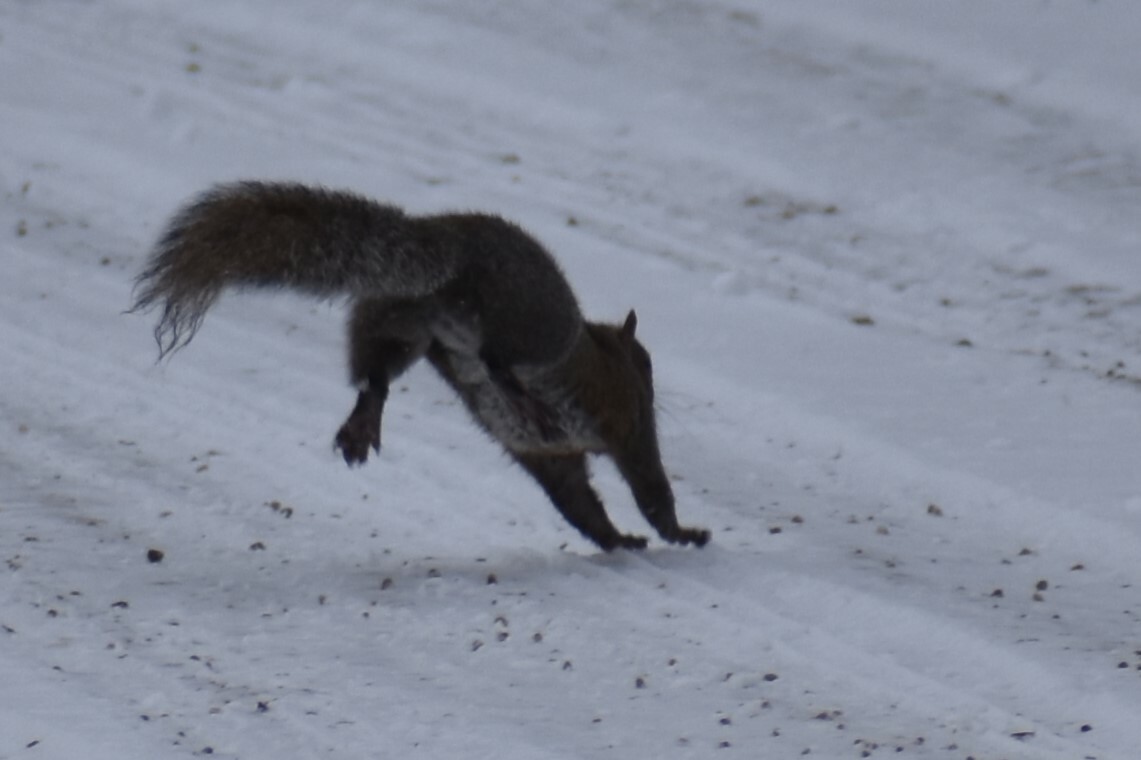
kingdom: Animalia
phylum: Chordata
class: Mammalia
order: Rodentia
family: Sciuridae
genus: Sciurus
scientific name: Sciurus carolinensis
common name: Eastern gray squirrel
